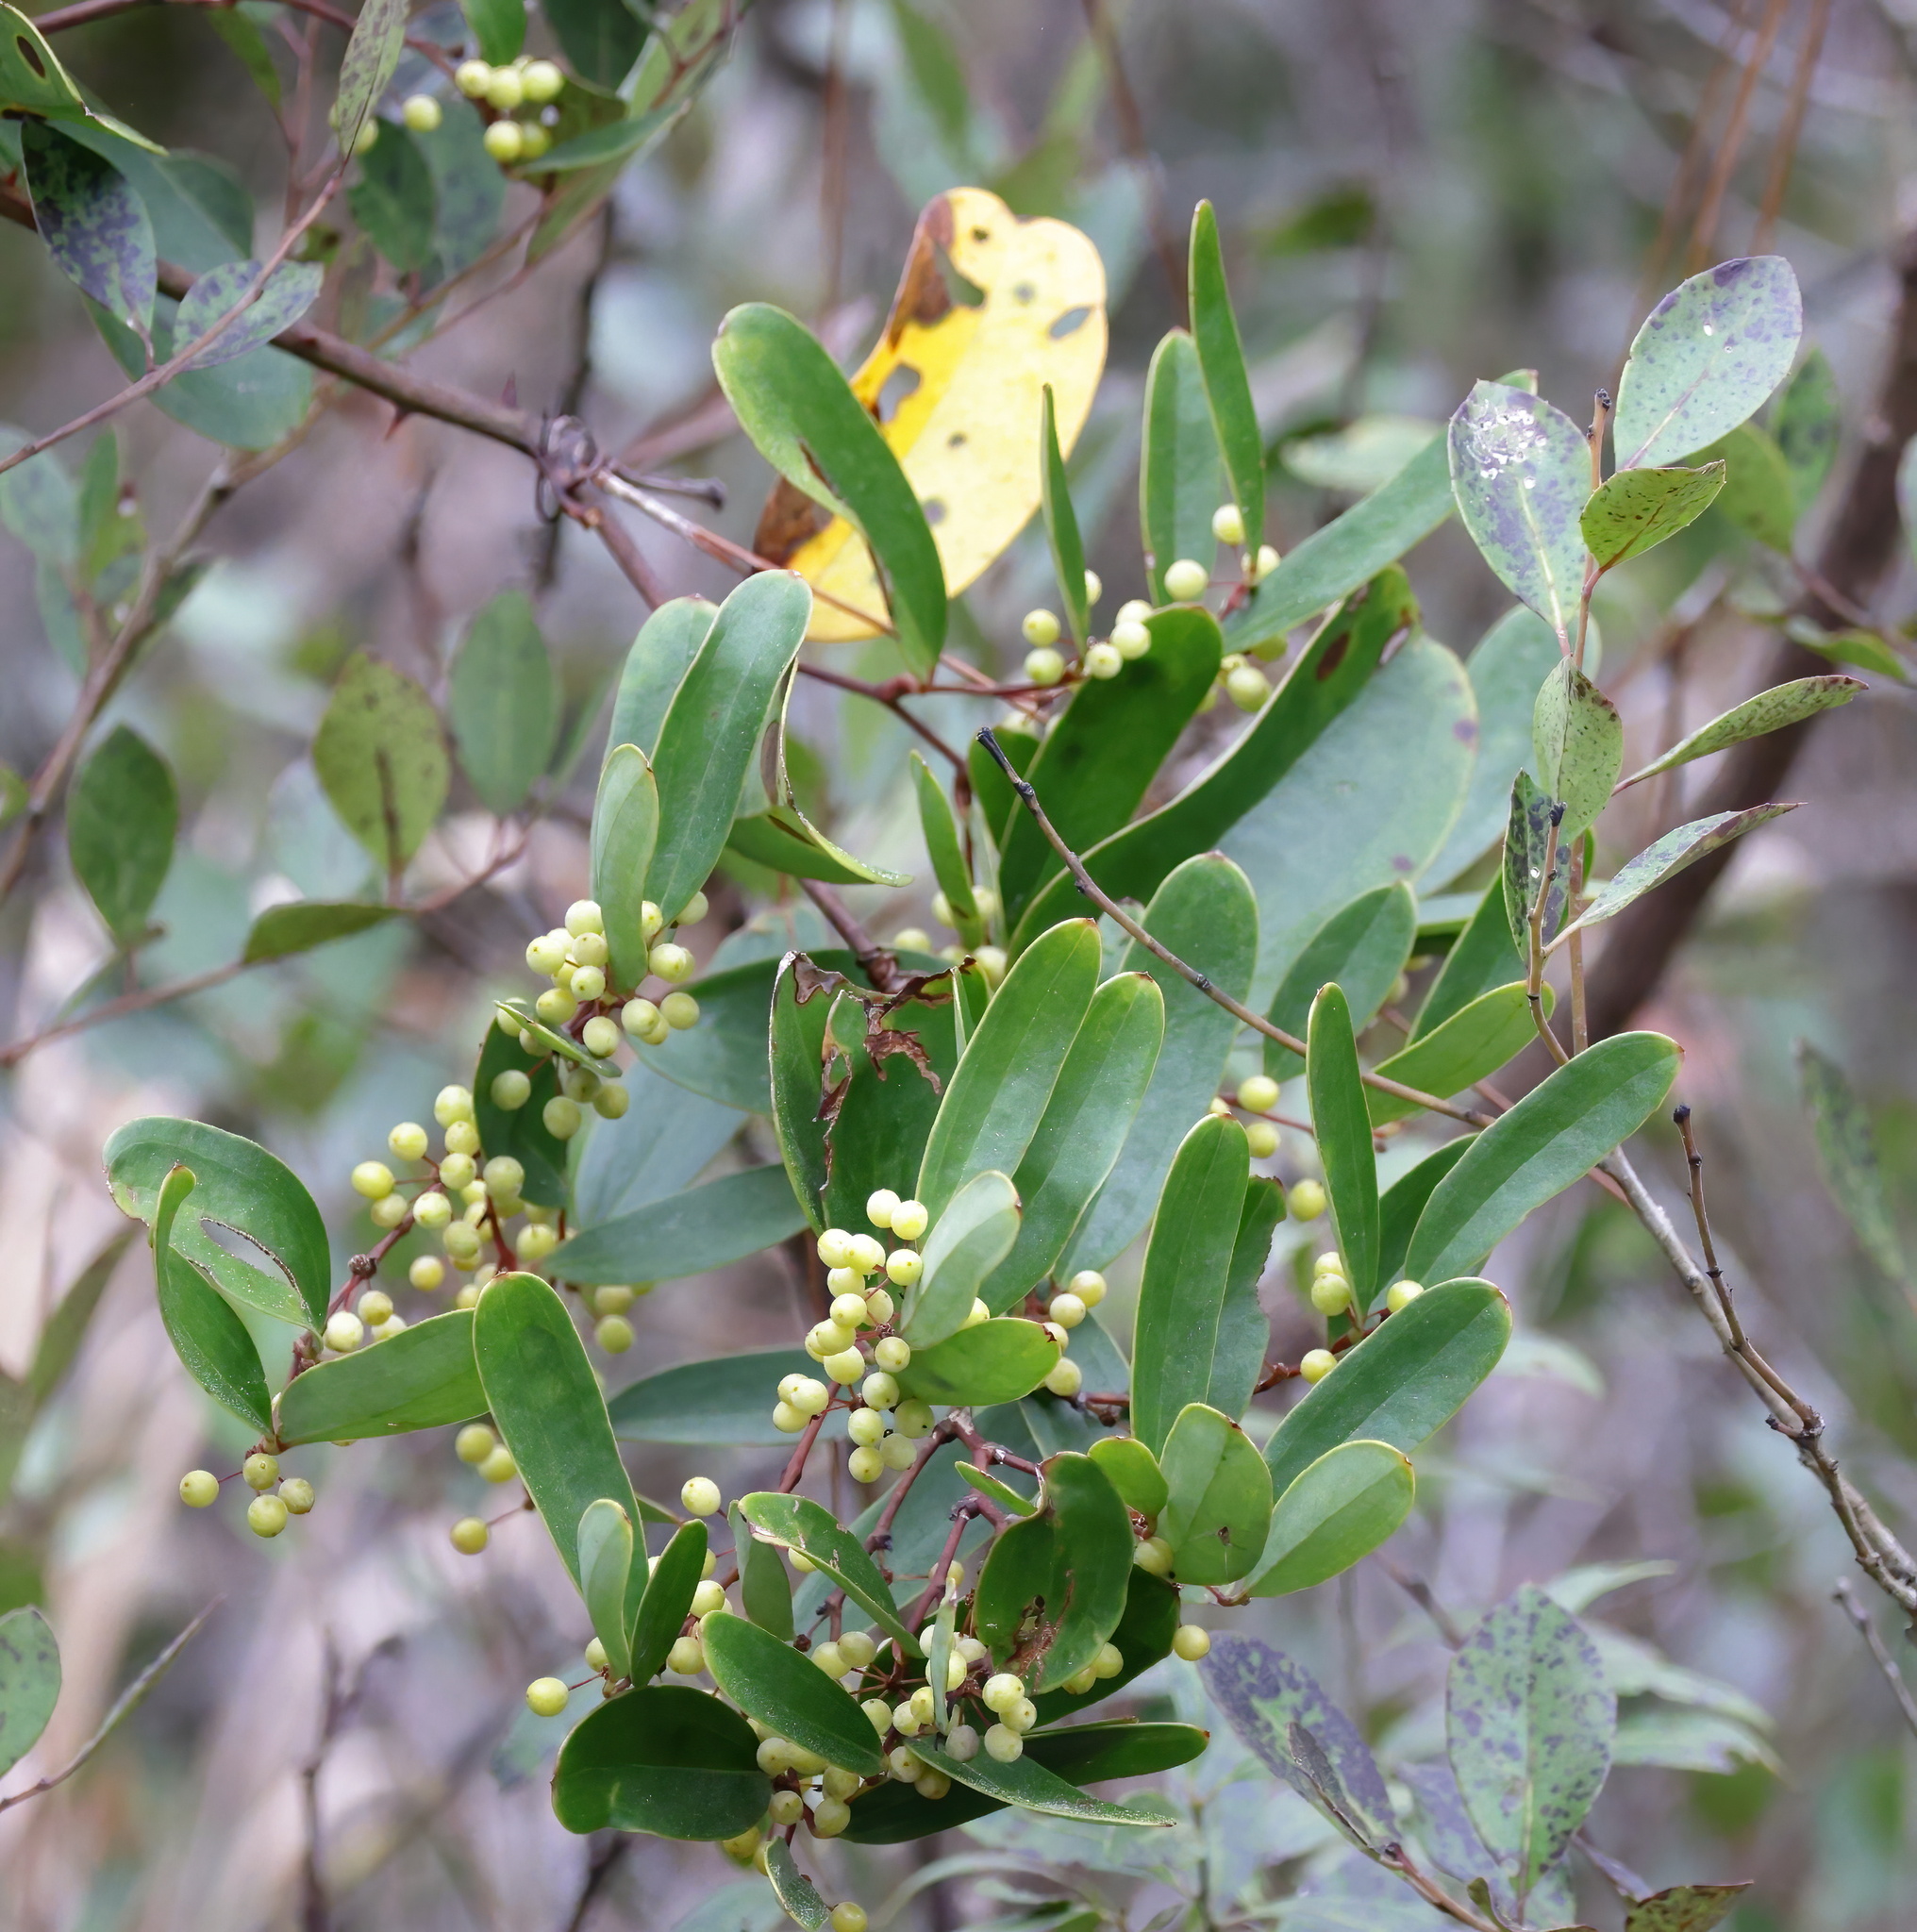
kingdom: Plantae
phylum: Tracheophyta
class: Liliopsida
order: Liliales
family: Smilacaceae
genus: Smilax
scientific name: Smilax laurifolia
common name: Bamboovine
